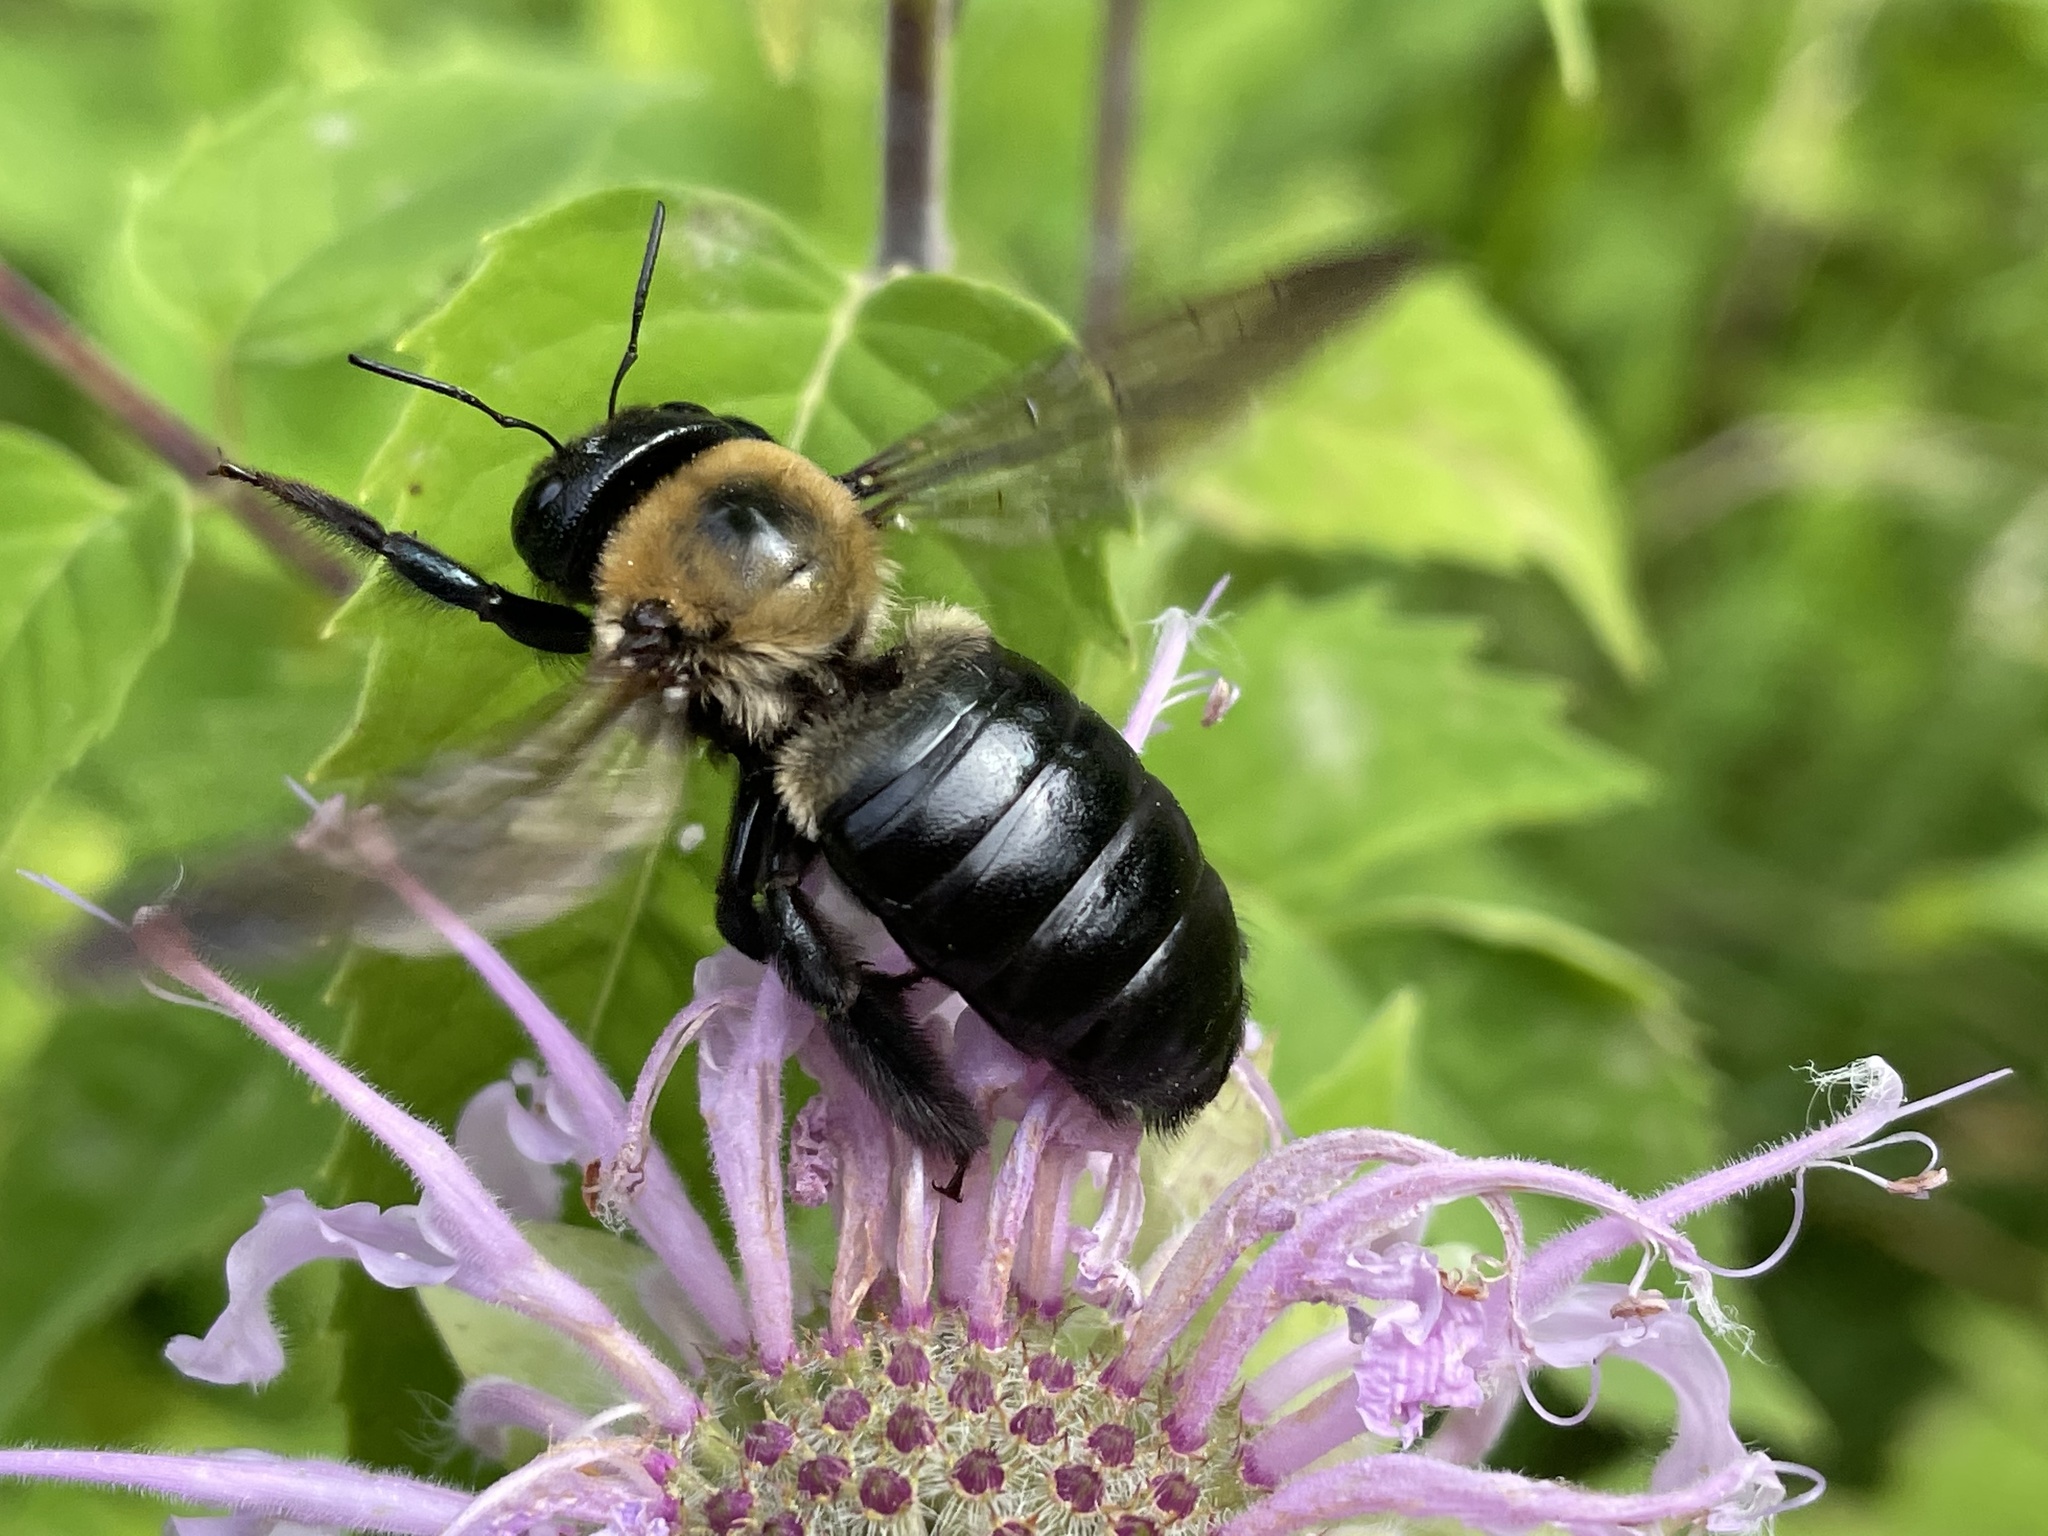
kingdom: Animalia
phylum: Arthropoda
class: Insecta
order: Hymenoptera
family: Apidae
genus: Xylocopa
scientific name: Xylocopa virginica
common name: Carpenter bee
